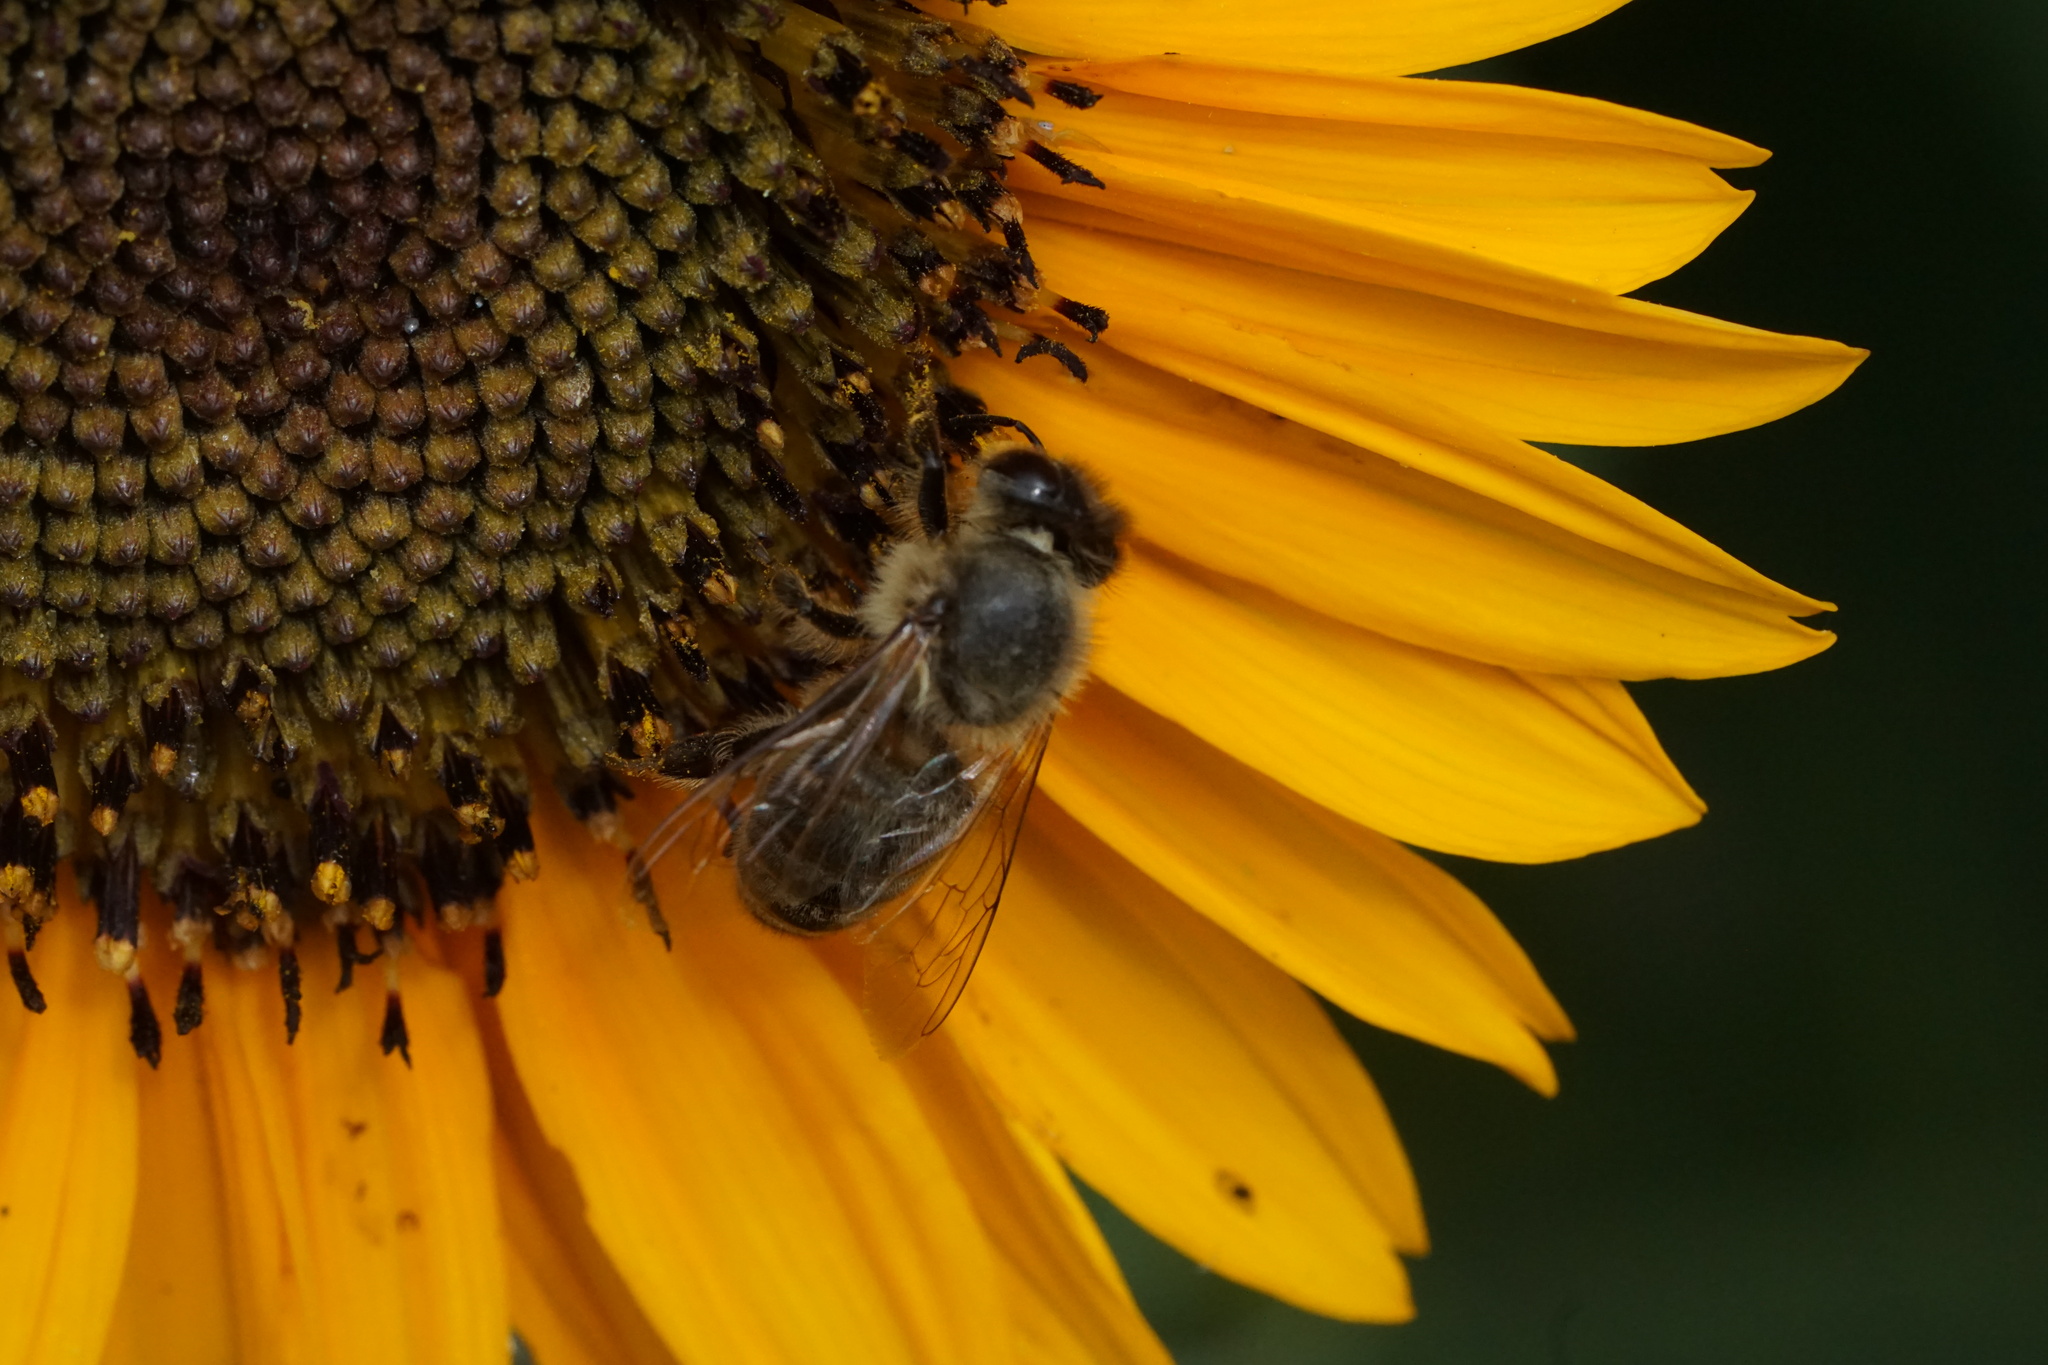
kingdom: Animalia
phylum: Arthropoda
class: Insecta
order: Hymenoptera
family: Apidae
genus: Apis
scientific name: Apis mellifera
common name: Honey bee
